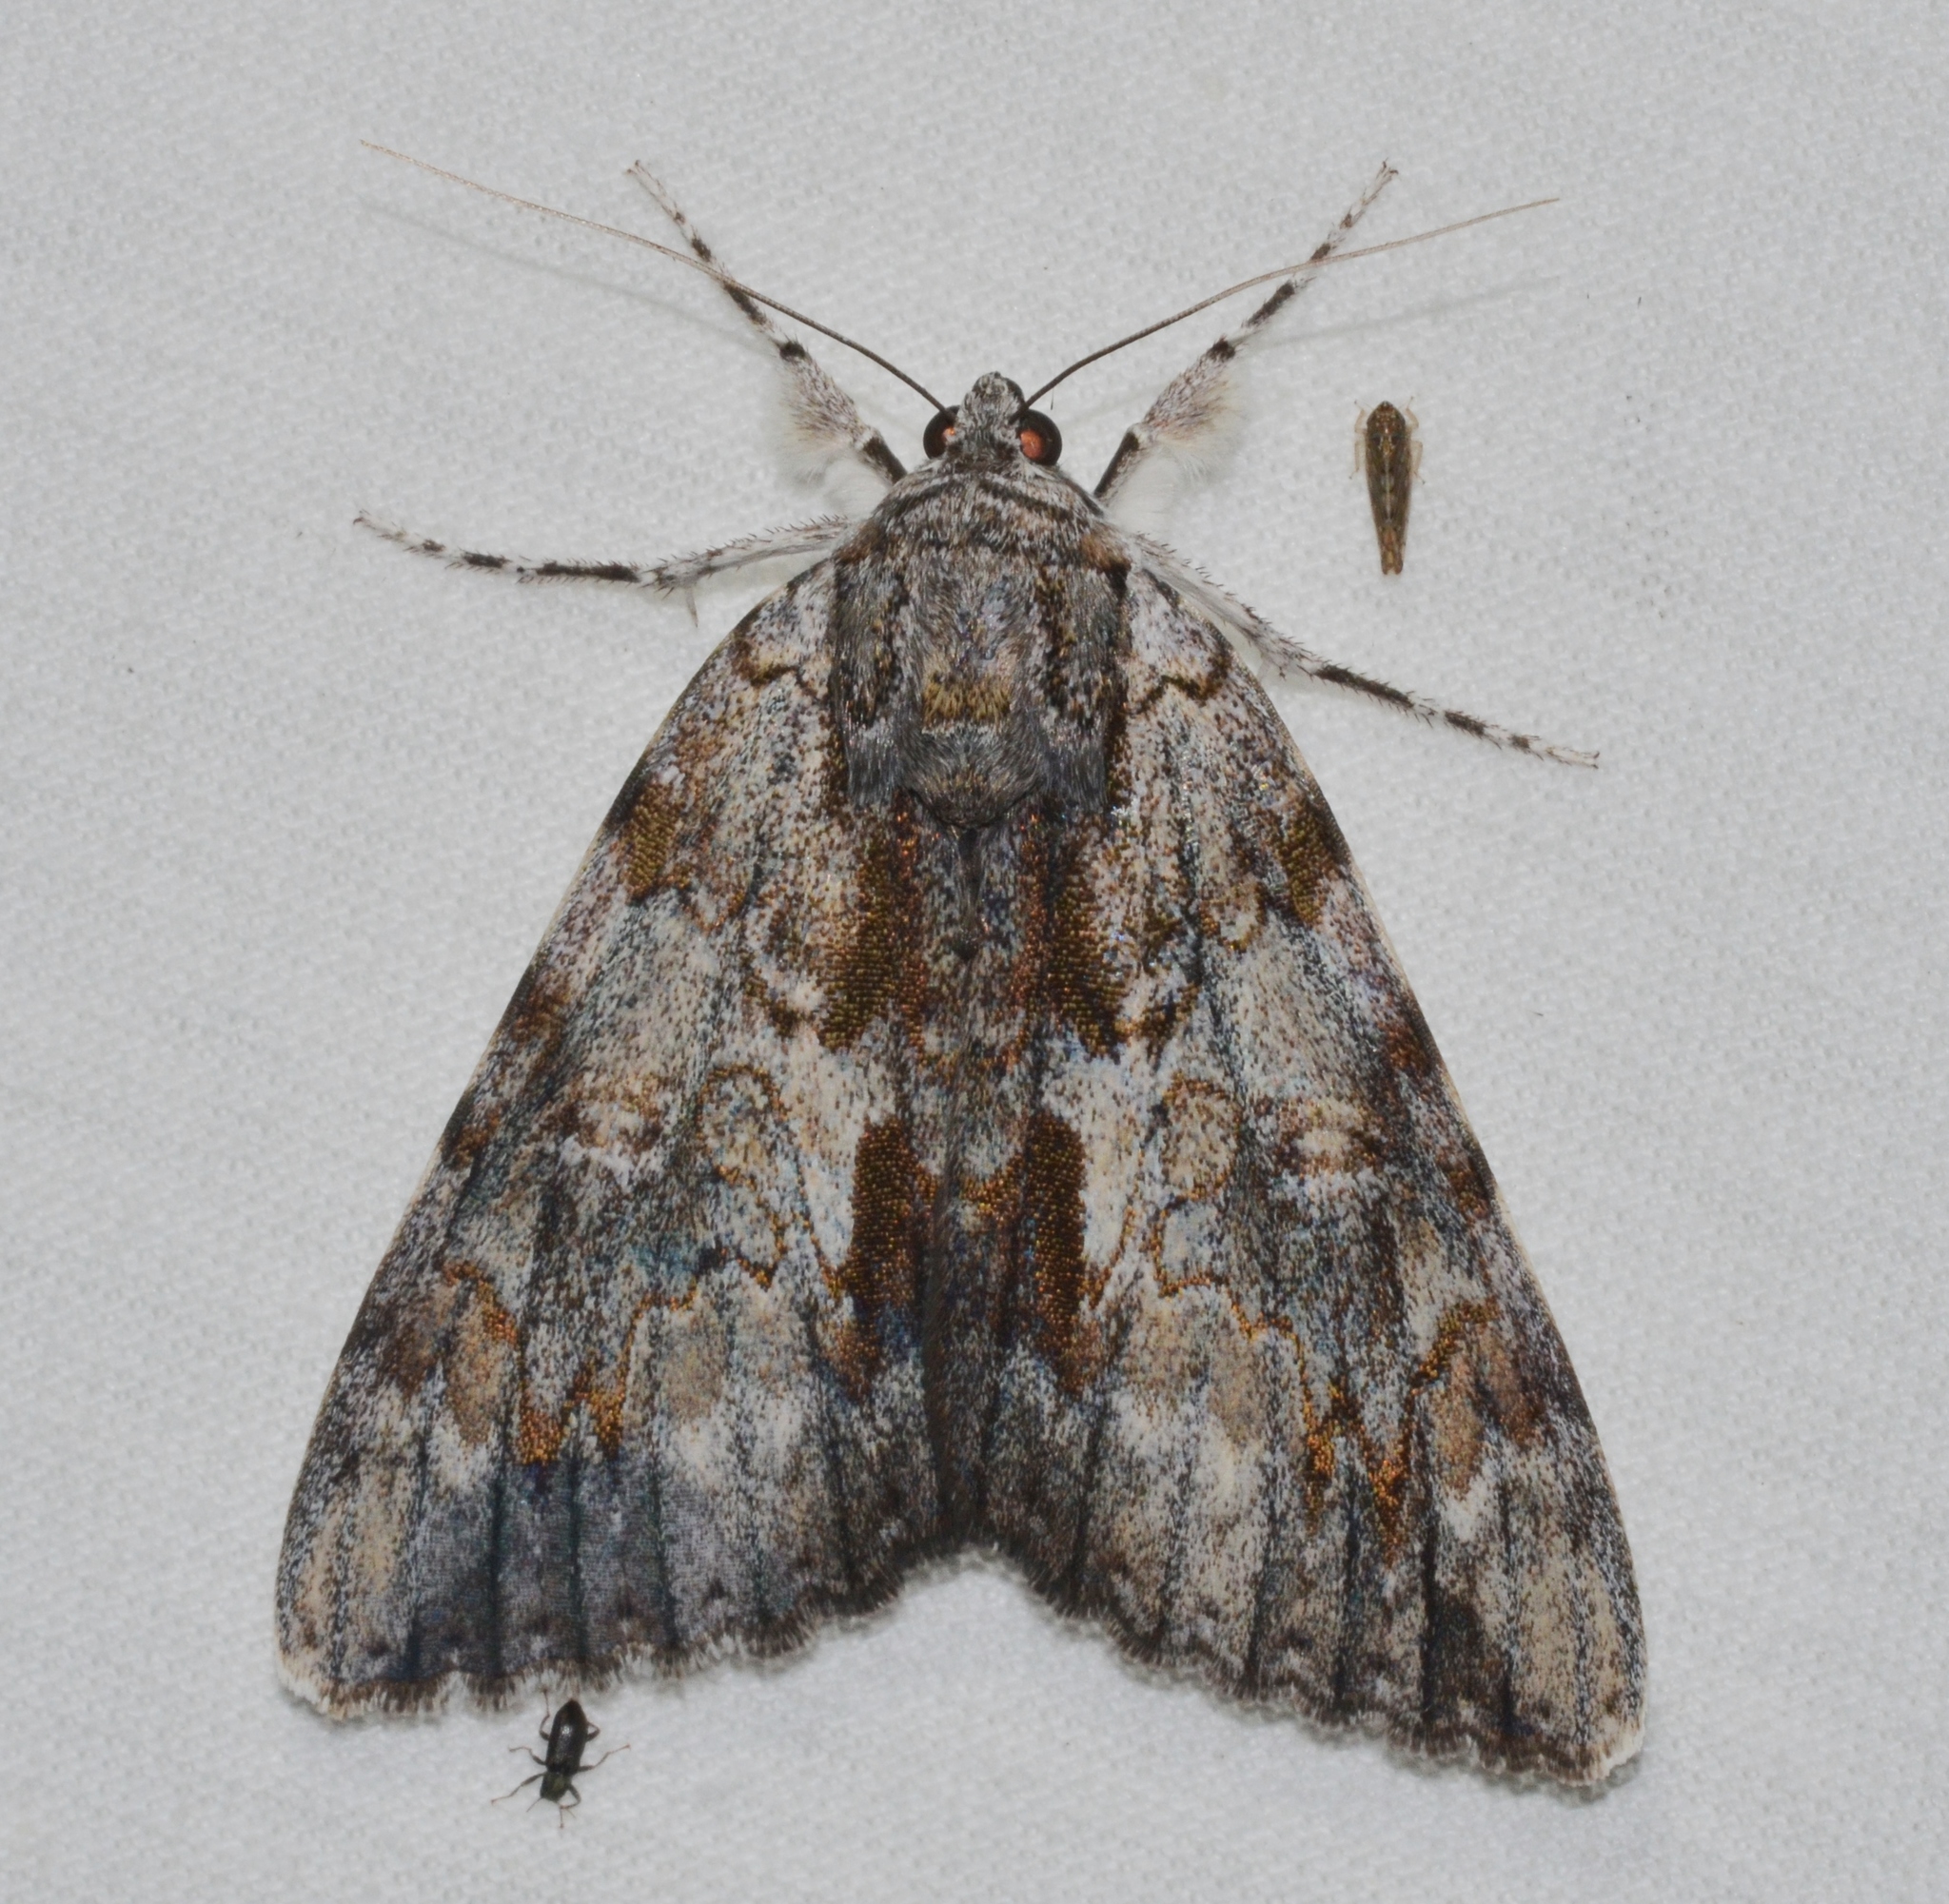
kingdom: Animalia
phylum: Arthropoda
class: Insecta
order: Lepidoptera
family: Erebidae
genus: Catocala
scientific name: Catocala insolabilis
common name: Inconsolable underwing
